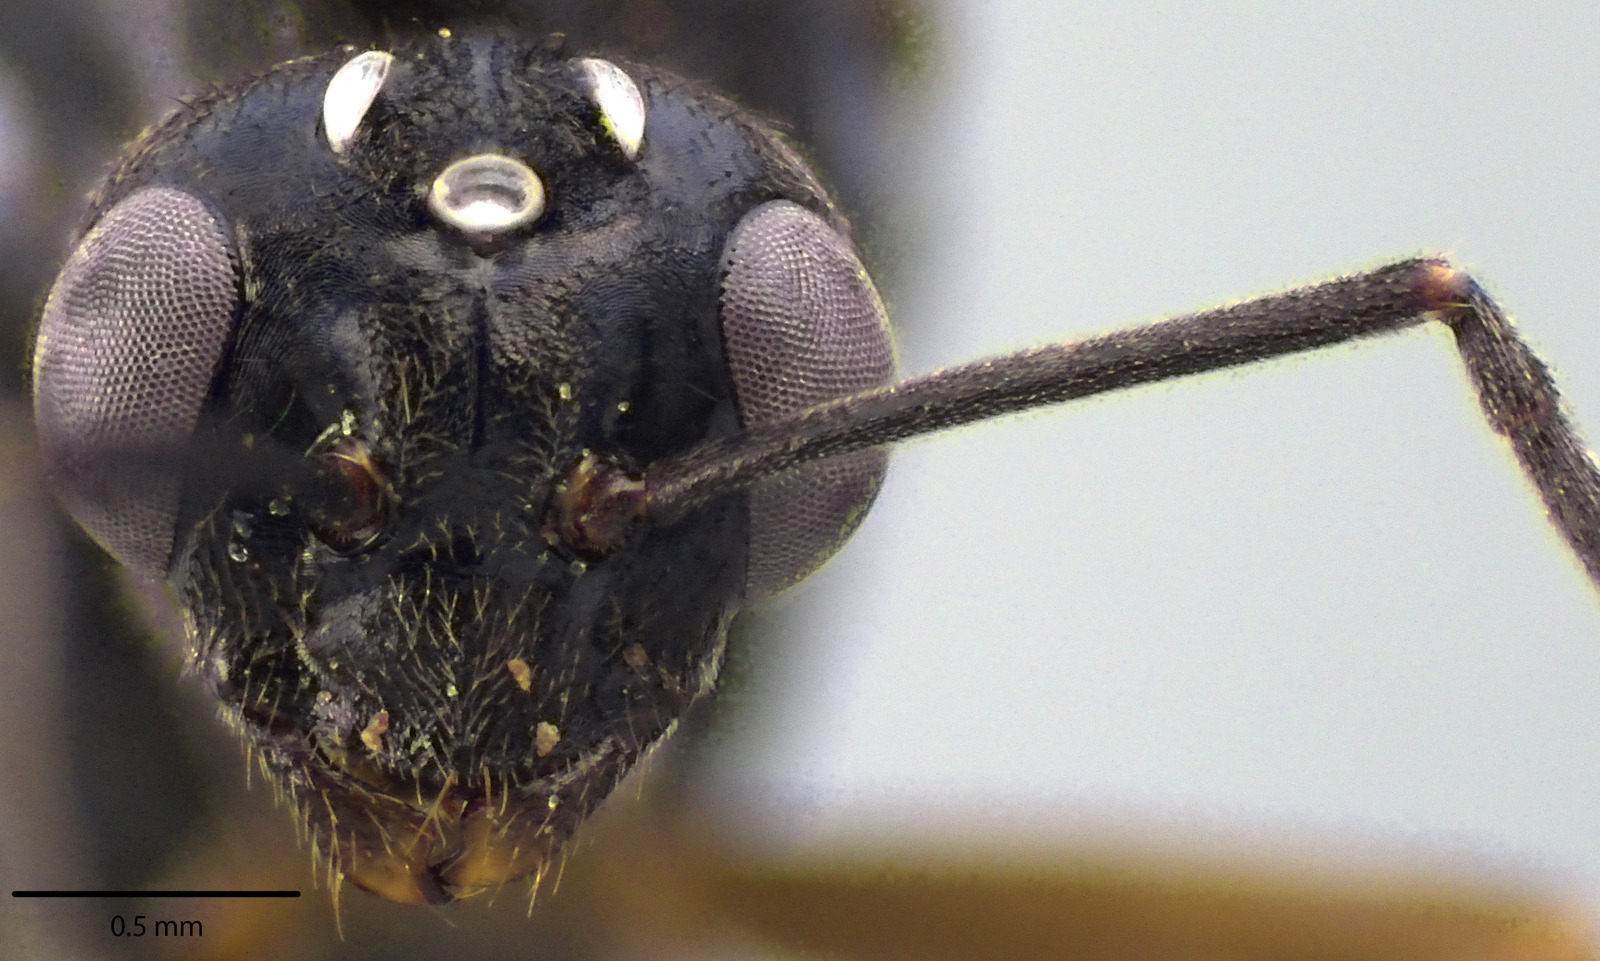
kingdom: Animalia
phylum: Arthropoda
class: Insecta
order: Hymenoptera
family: Formicidae
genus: Formica
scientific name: Formica incerta
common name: Uncertain field ant
